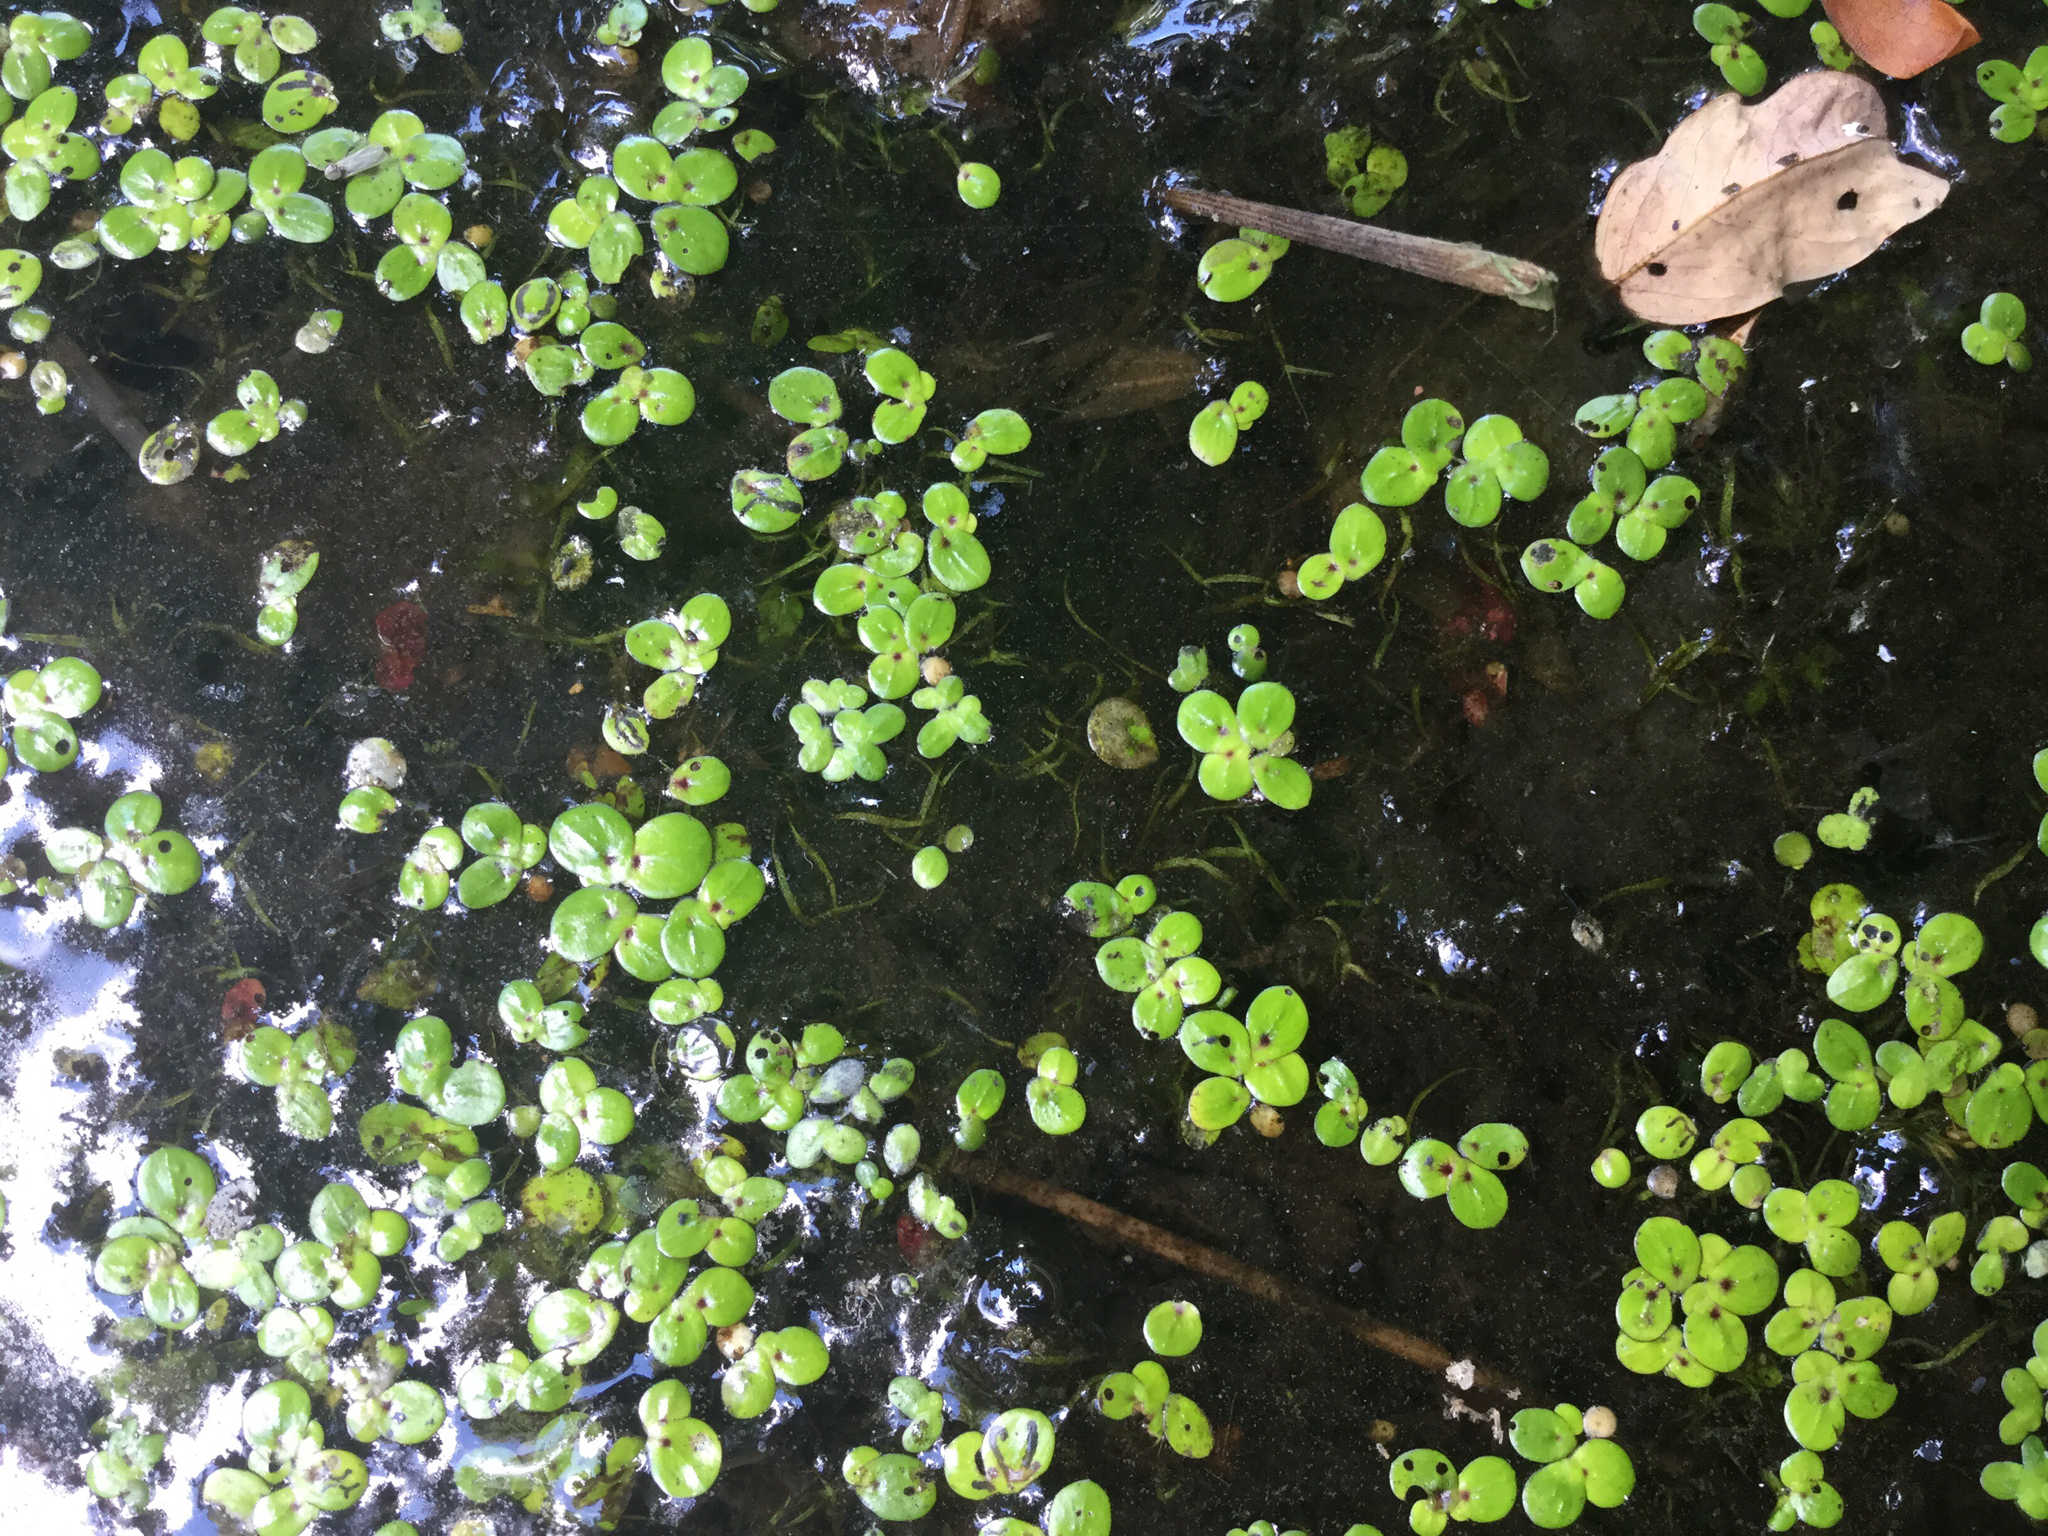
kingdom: Plantae
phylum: Tracheophyta
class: Liliopsida
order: Alismatales
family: Araceae
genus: Wolffiella
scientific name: Wolffiella gladiata
